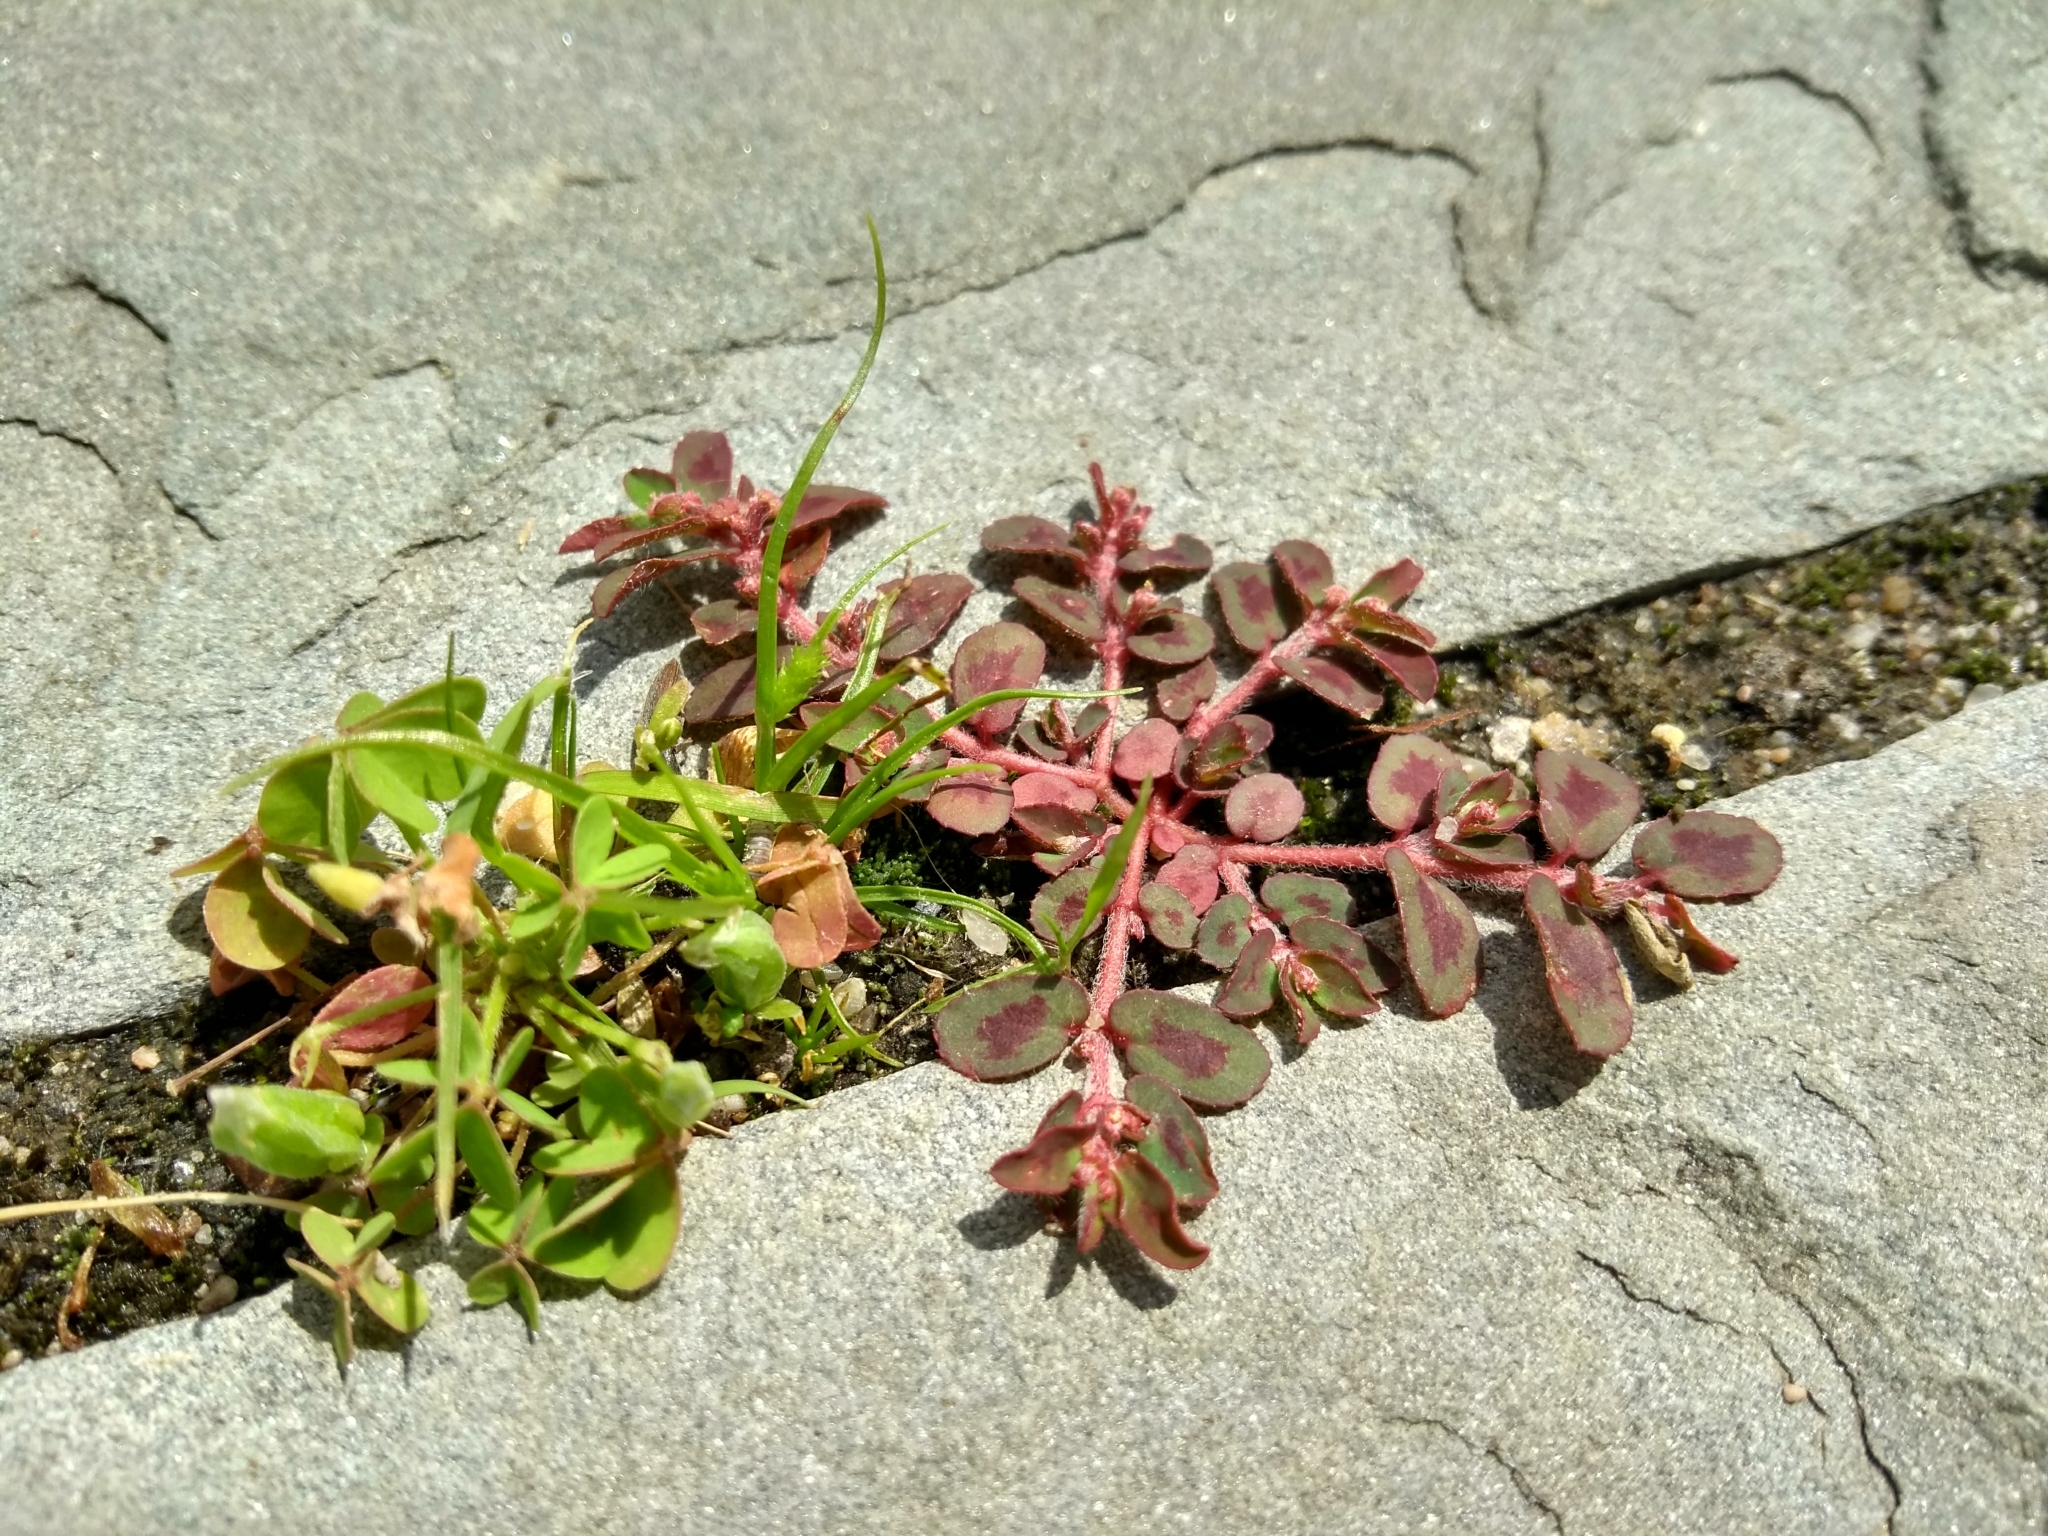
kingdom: Plantae
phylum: Tracheophyta
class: Magnoliopsida
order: Malpighiales
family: Euphorbiaceae
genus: Euphorbia
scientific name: Euphorbia maculata
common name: Spotted spurge
